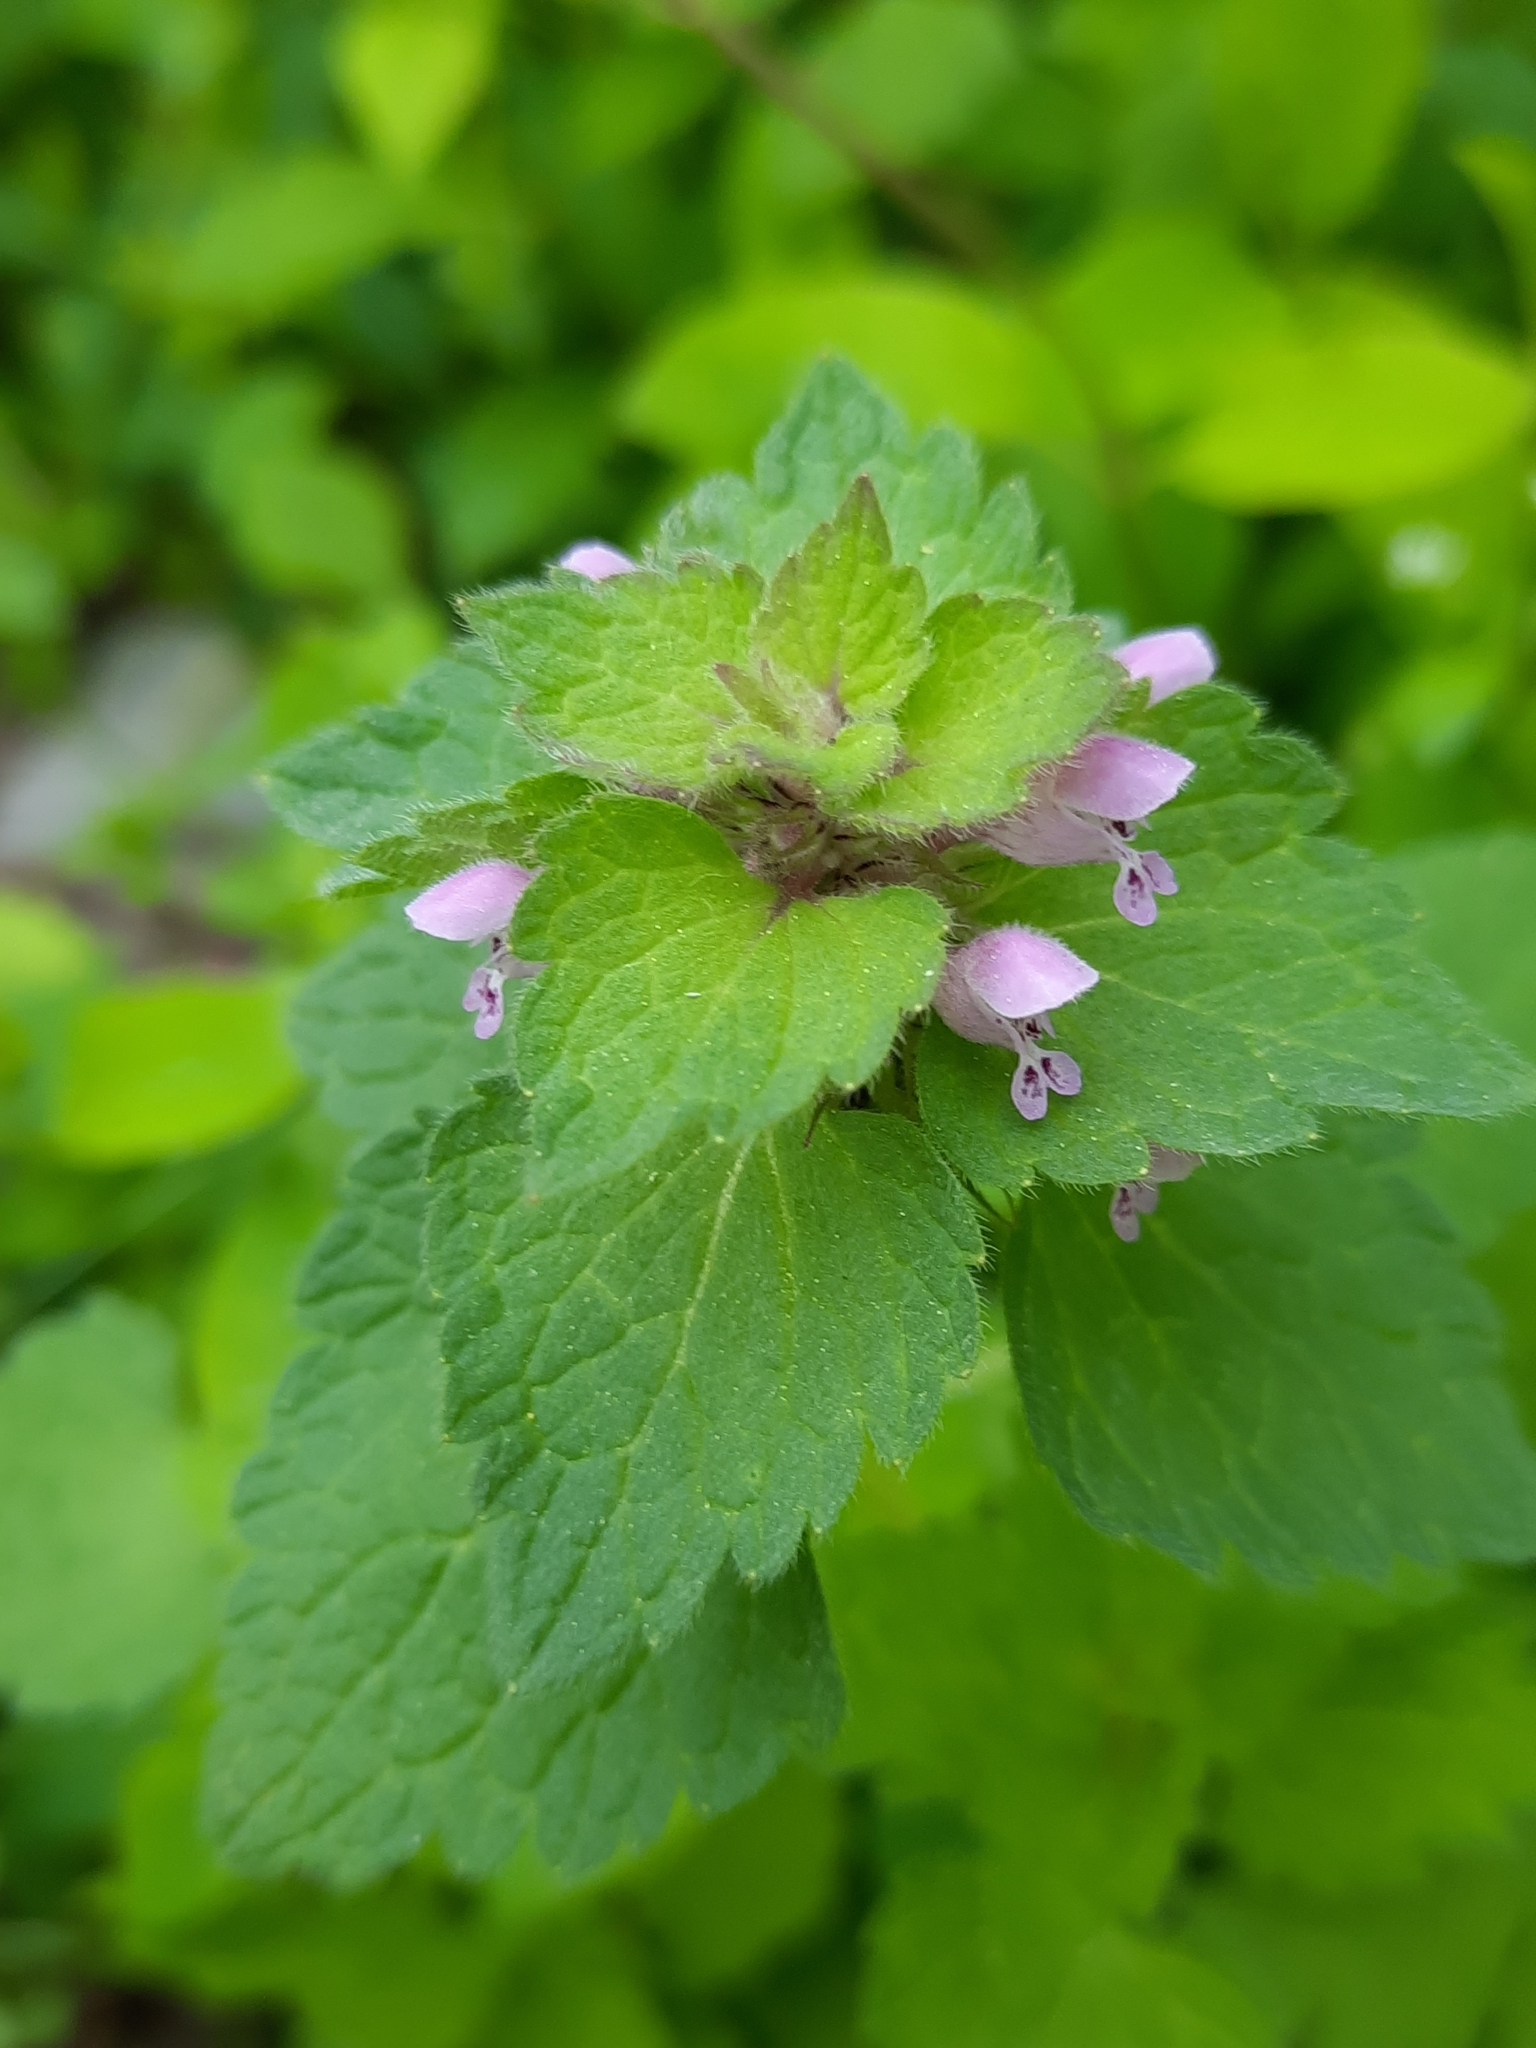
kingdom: Plantae
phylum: Tracheophyta
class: Magnoliopsida
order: Lamiales
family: Lamiaceae
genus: Lamium
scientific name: Lamium purpureum
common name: Red dead-nettle
